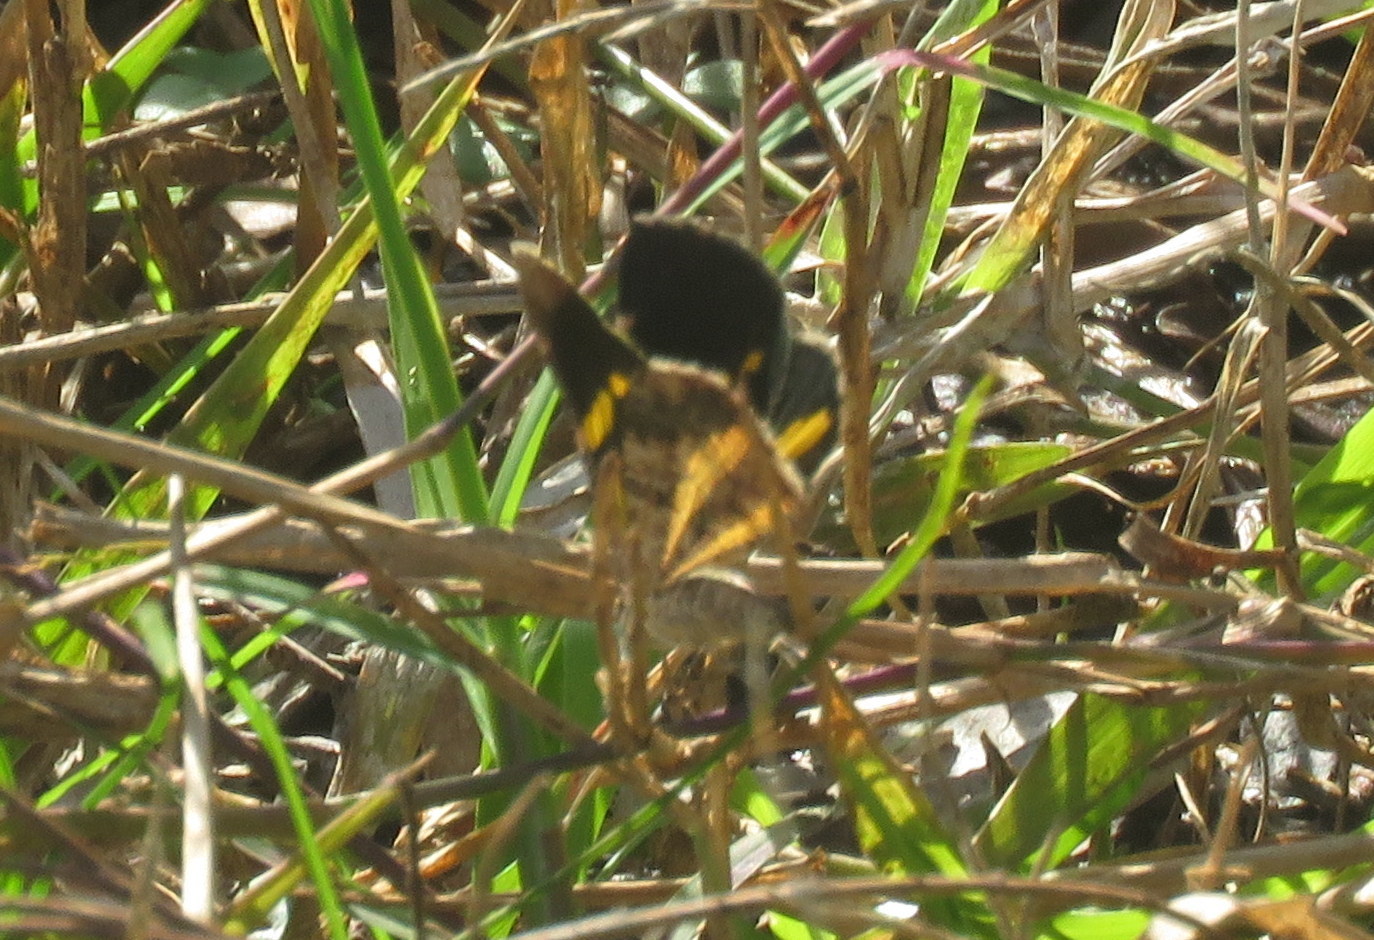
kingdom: Animalia
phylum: Arthropoda
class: Insecta
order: Lepidoptera
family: Geometridae
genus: Heterusia
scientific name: Heterusia quadruplicaria
